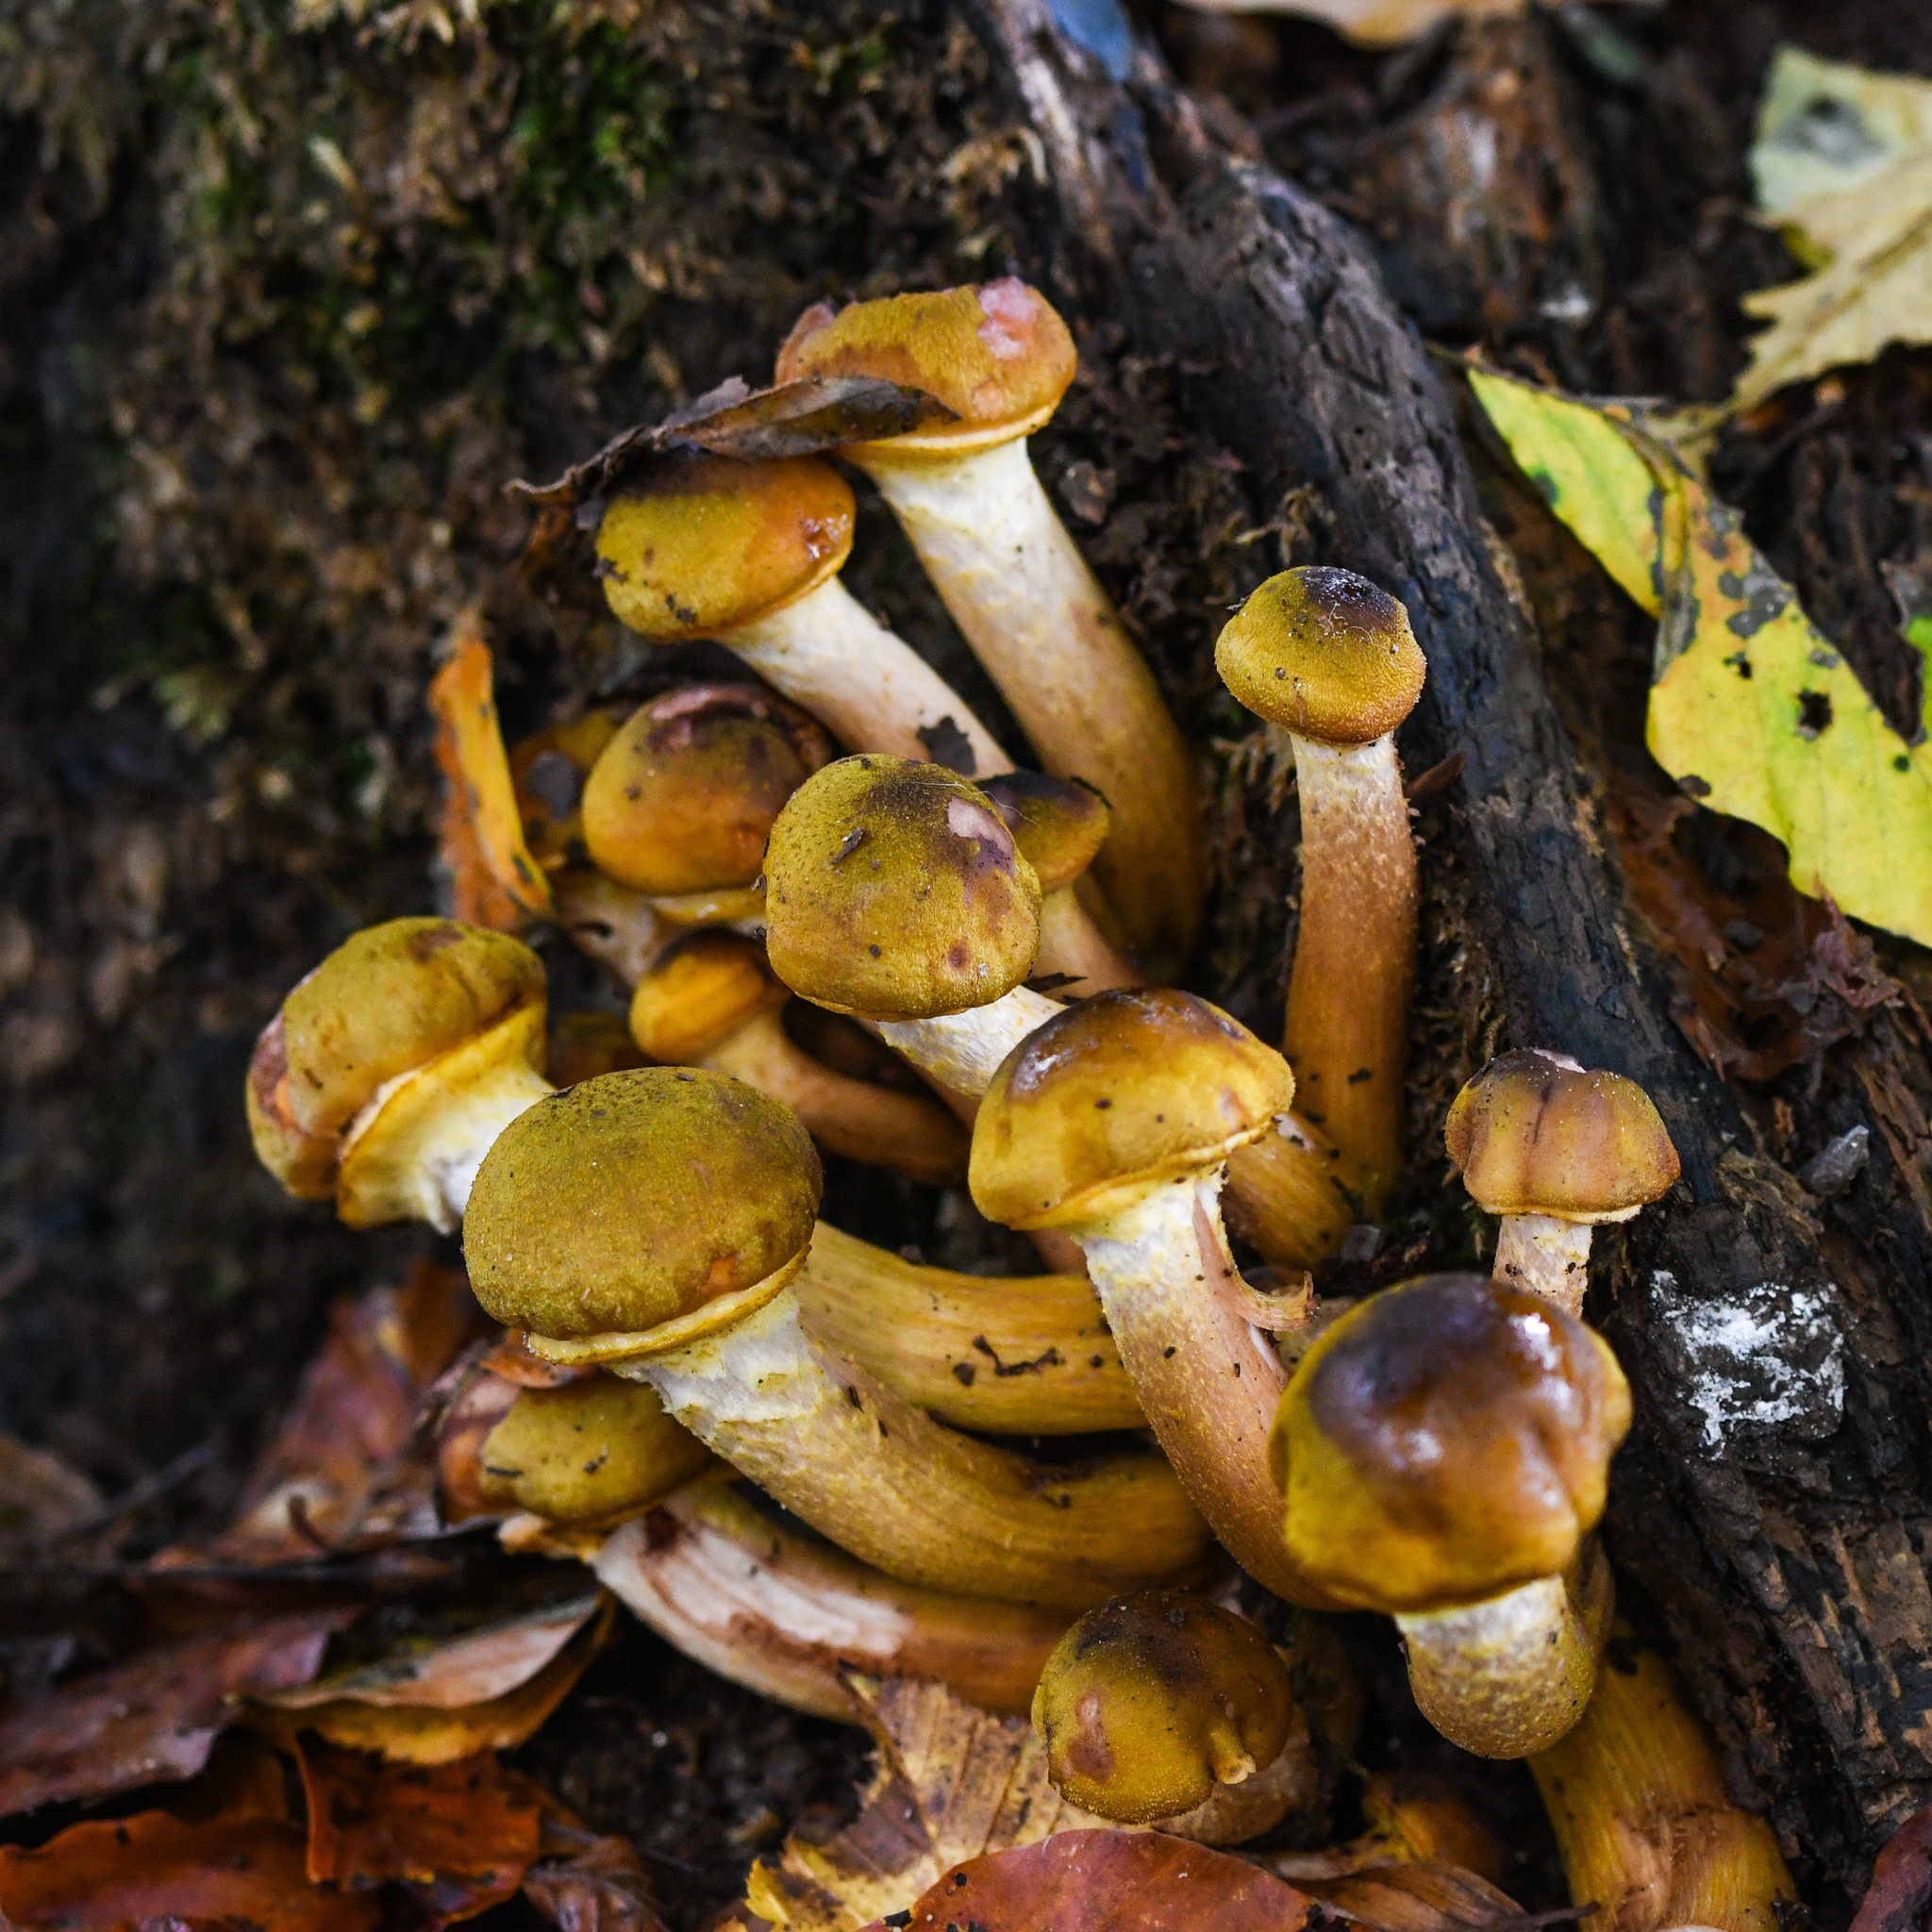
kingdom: Fungi
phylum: Basidiomycota
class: Agaricomycetes
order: Agaricales
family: Physalacriaceae
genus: Armillaria
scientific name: Armillaria mellea
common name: Honey fungus
